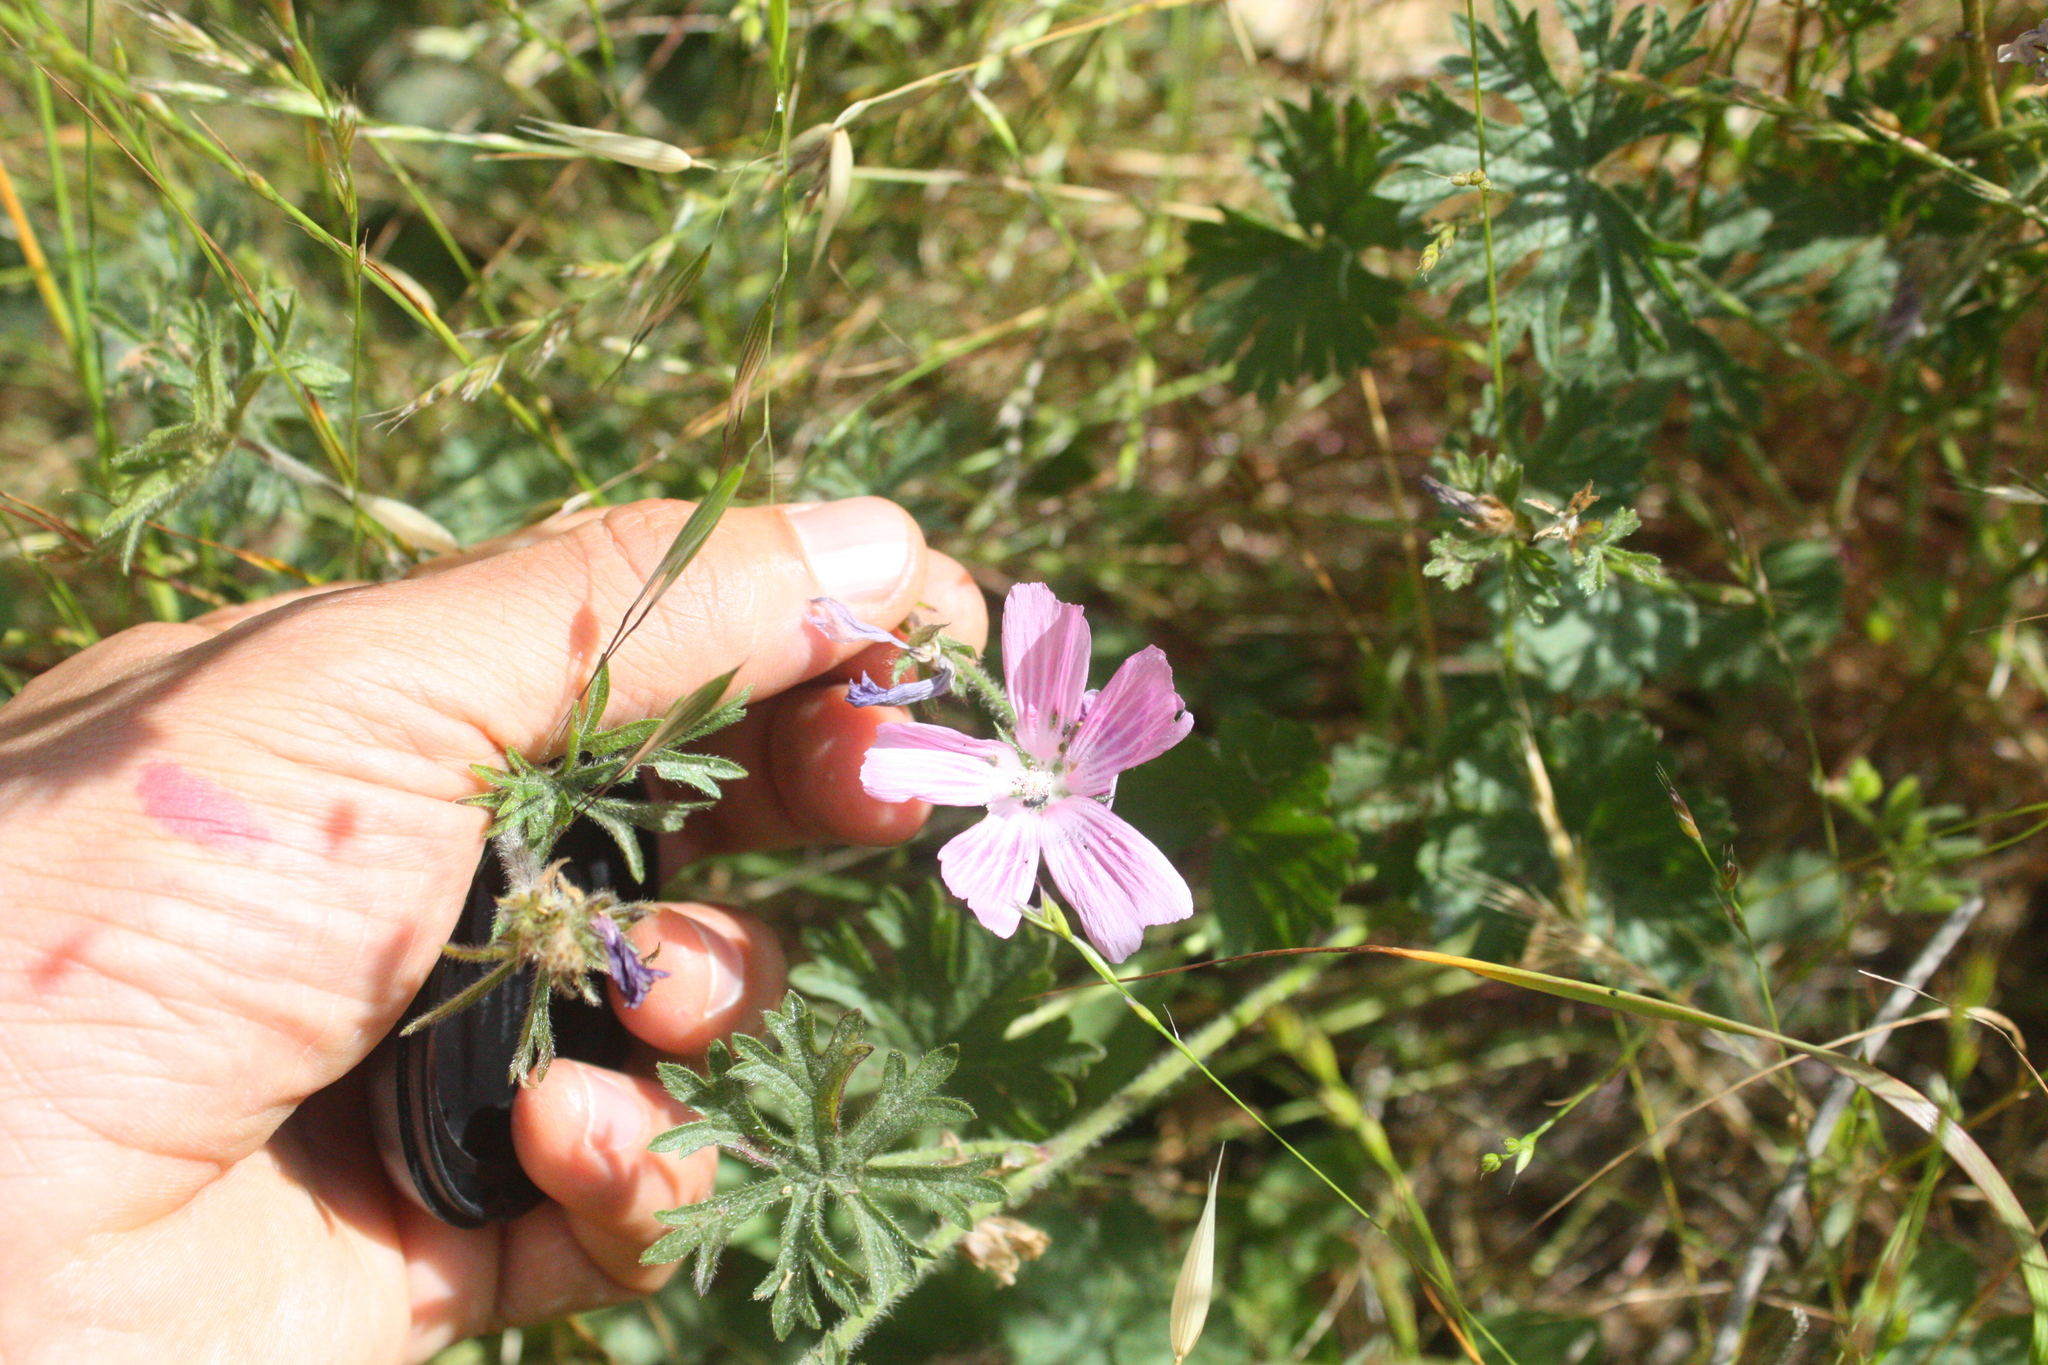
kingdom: Plantae
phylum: Tracheophyta
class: Magnoliopsida
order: Malvales
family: Malvaceae
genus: Sidalcea
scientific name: Sidalcea malviflora
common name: Greek mallow
